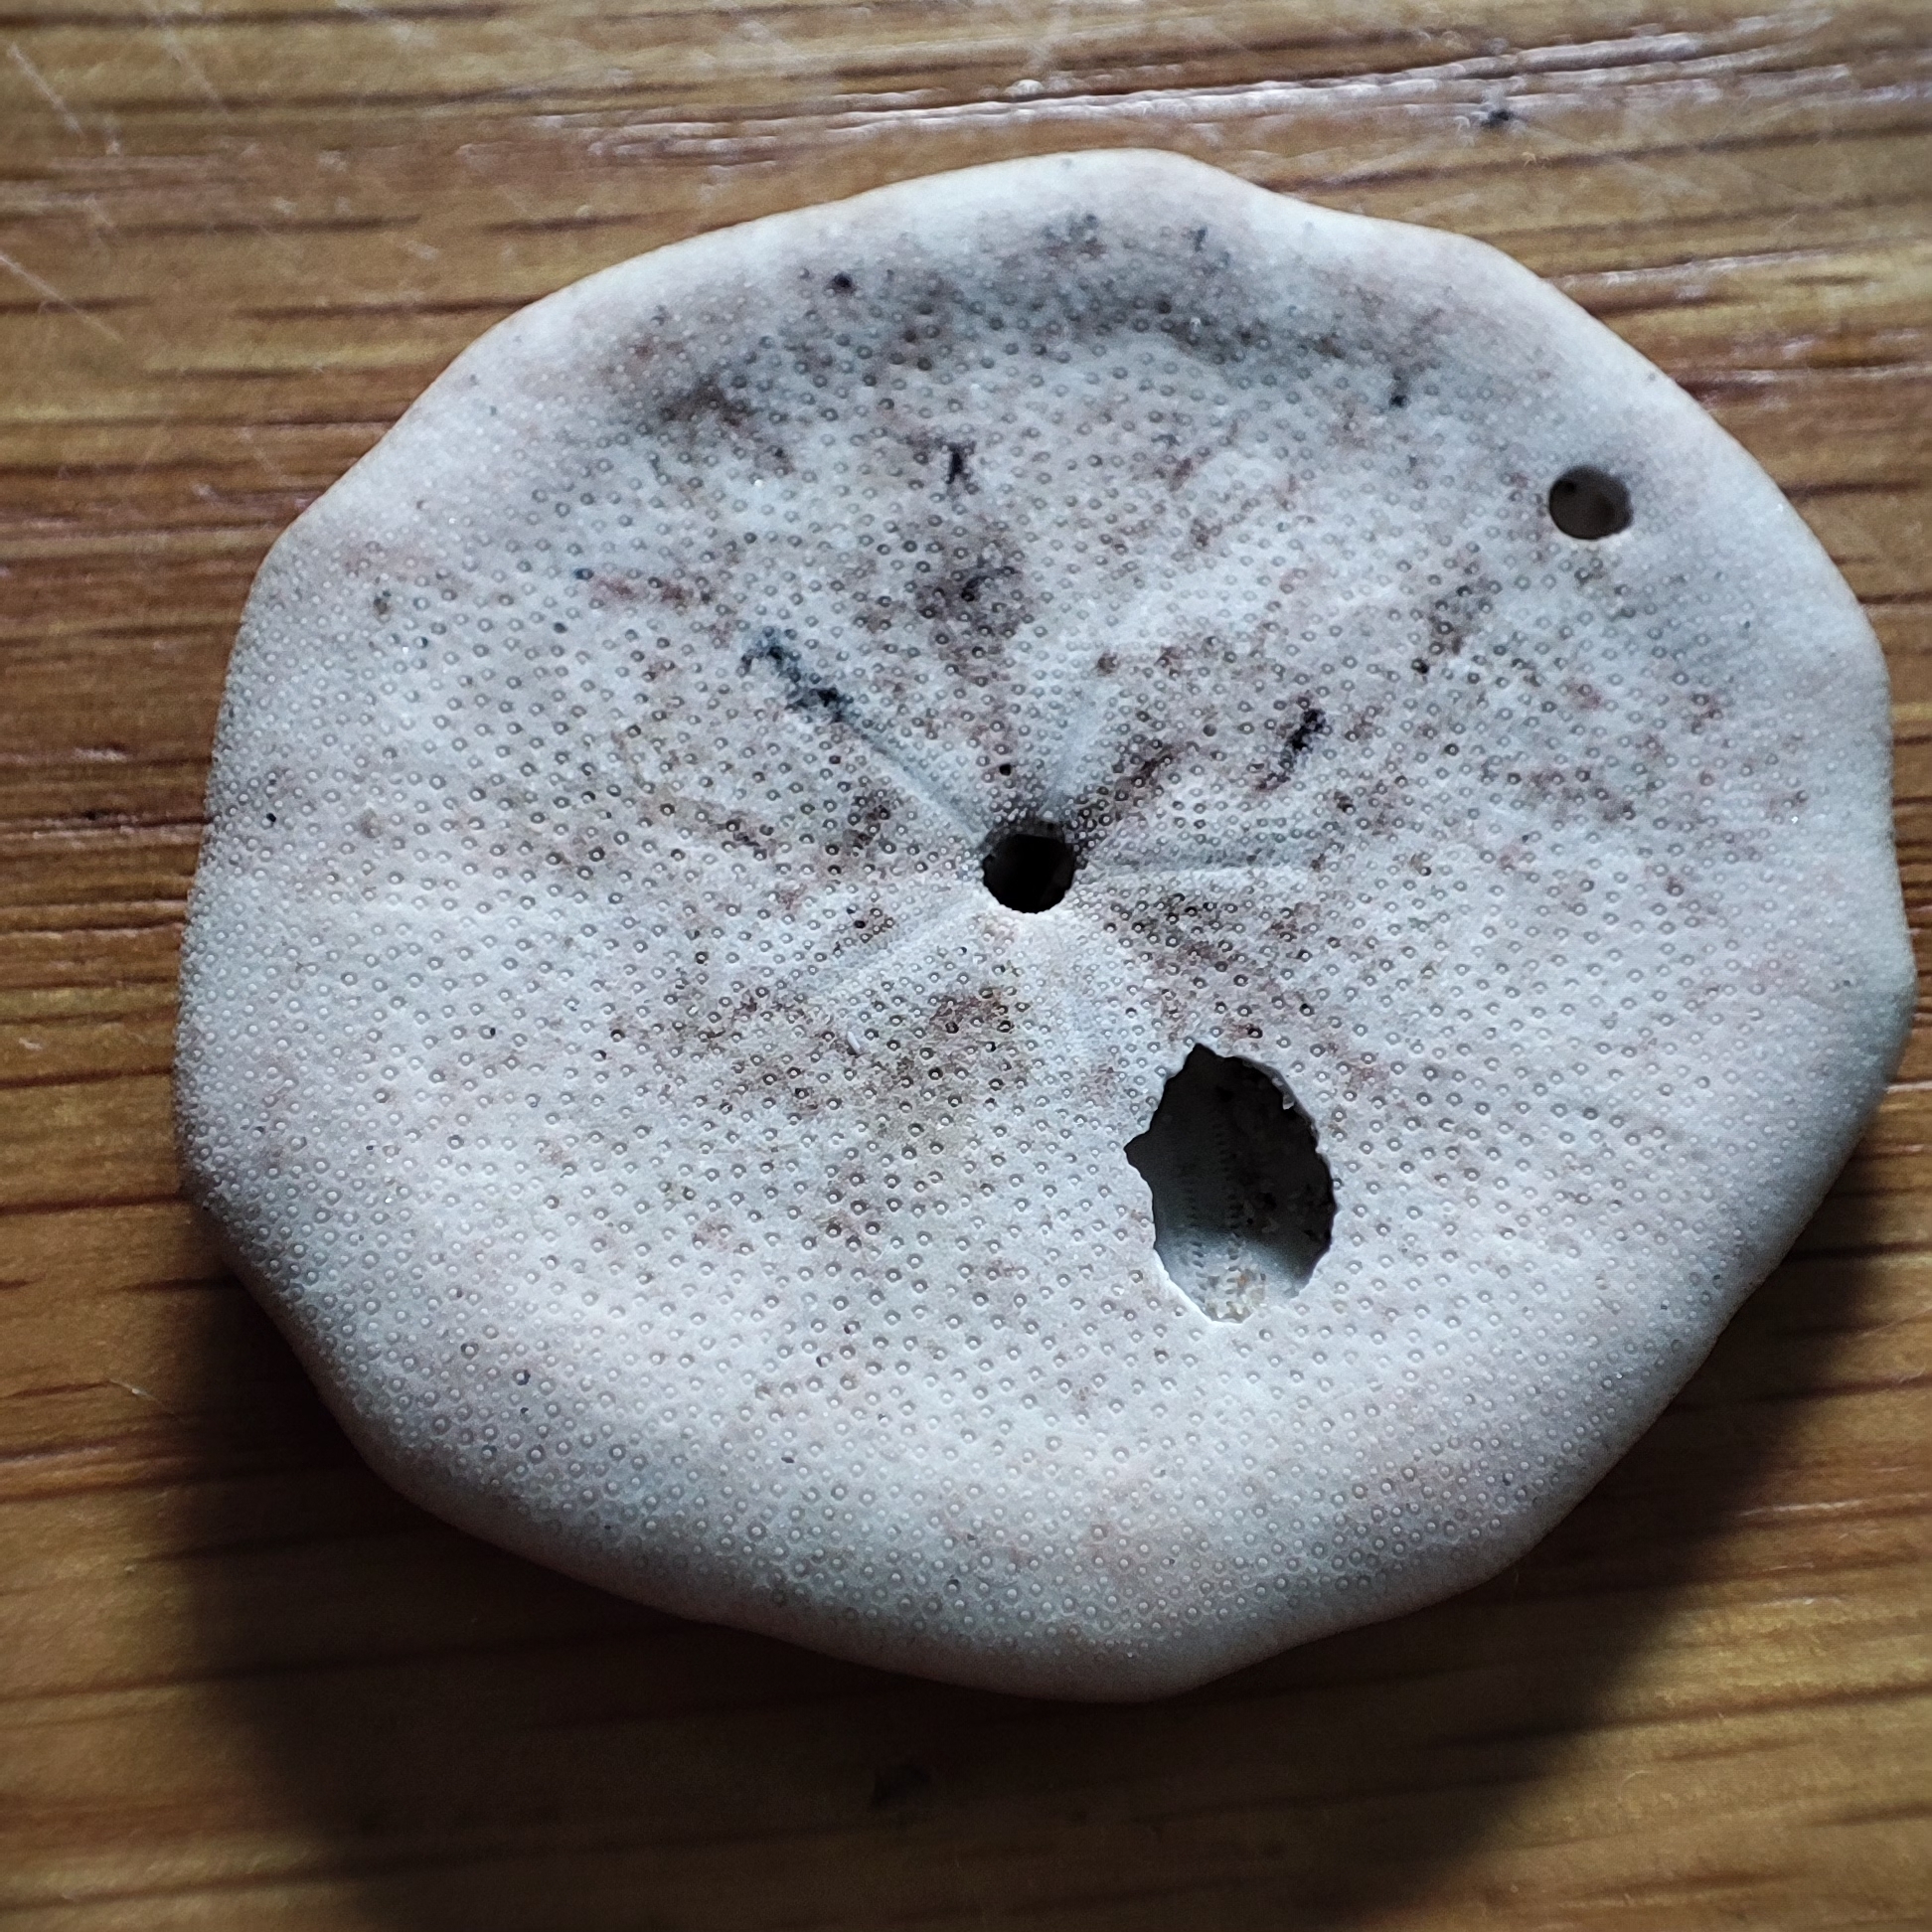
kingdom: Animalia
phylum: Echinodermata
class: Echinoidea
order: Echinolampadacea
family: Laganidae
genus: Jacksonaster
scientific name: Jacksonaster depressus
